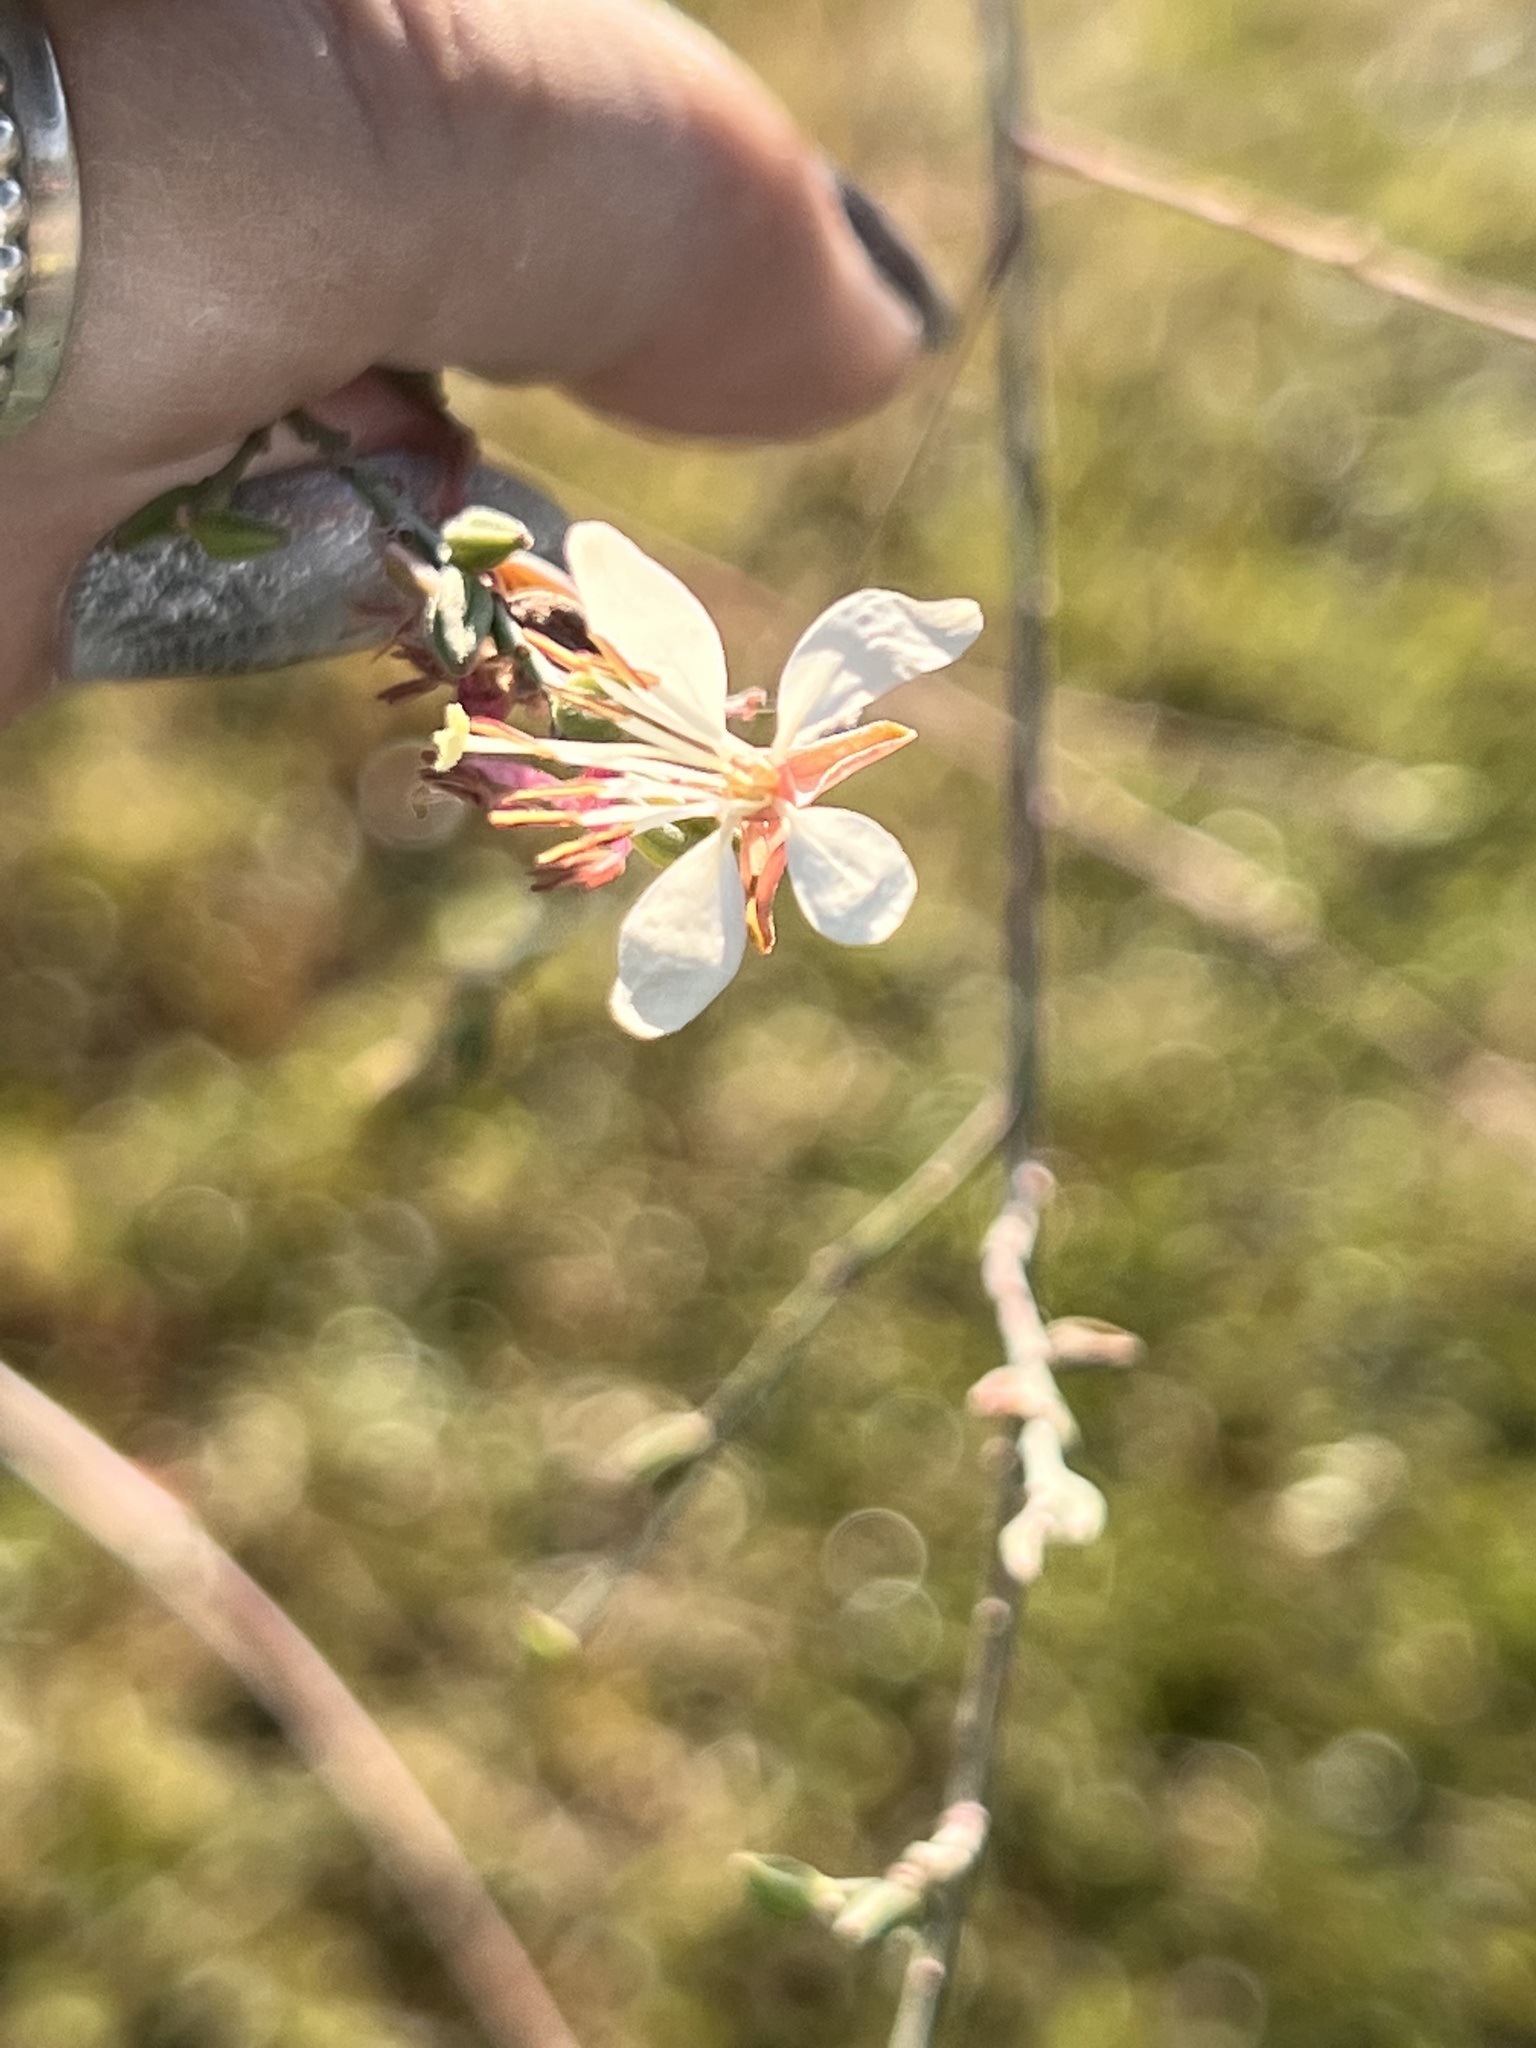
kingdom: Plantae
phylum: Tracheophyta
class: Magnoliopsida
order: Myrtales
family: Onagraceae
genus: Oenothera
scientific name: Oenothera filiformis
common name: Longflower beeblossom
